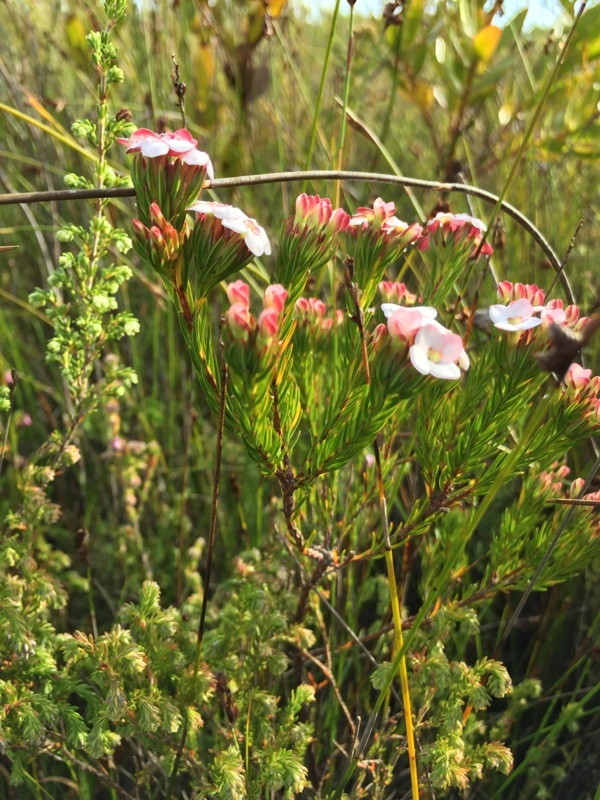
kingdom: Plantae
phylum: Tracheophyta
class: Magnoliopsida
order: Ericales
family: Ericaceae
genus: Erica
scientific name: Erica fastigiata
